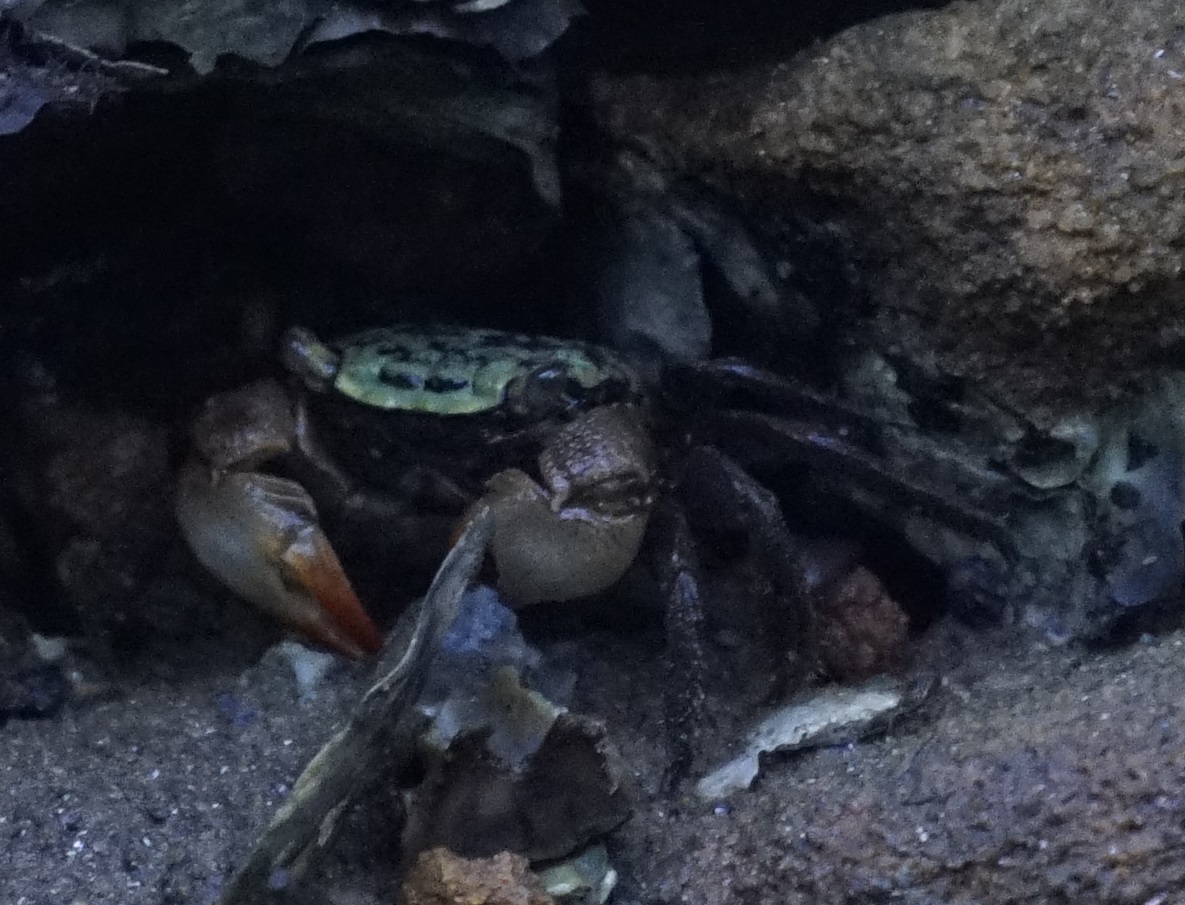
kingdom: Animalia
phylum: Arthropoda
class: Malacostraca
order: Decapoda
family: Sesarmidae
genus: Parasesarma
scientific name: Parasesarma erythodactylum
